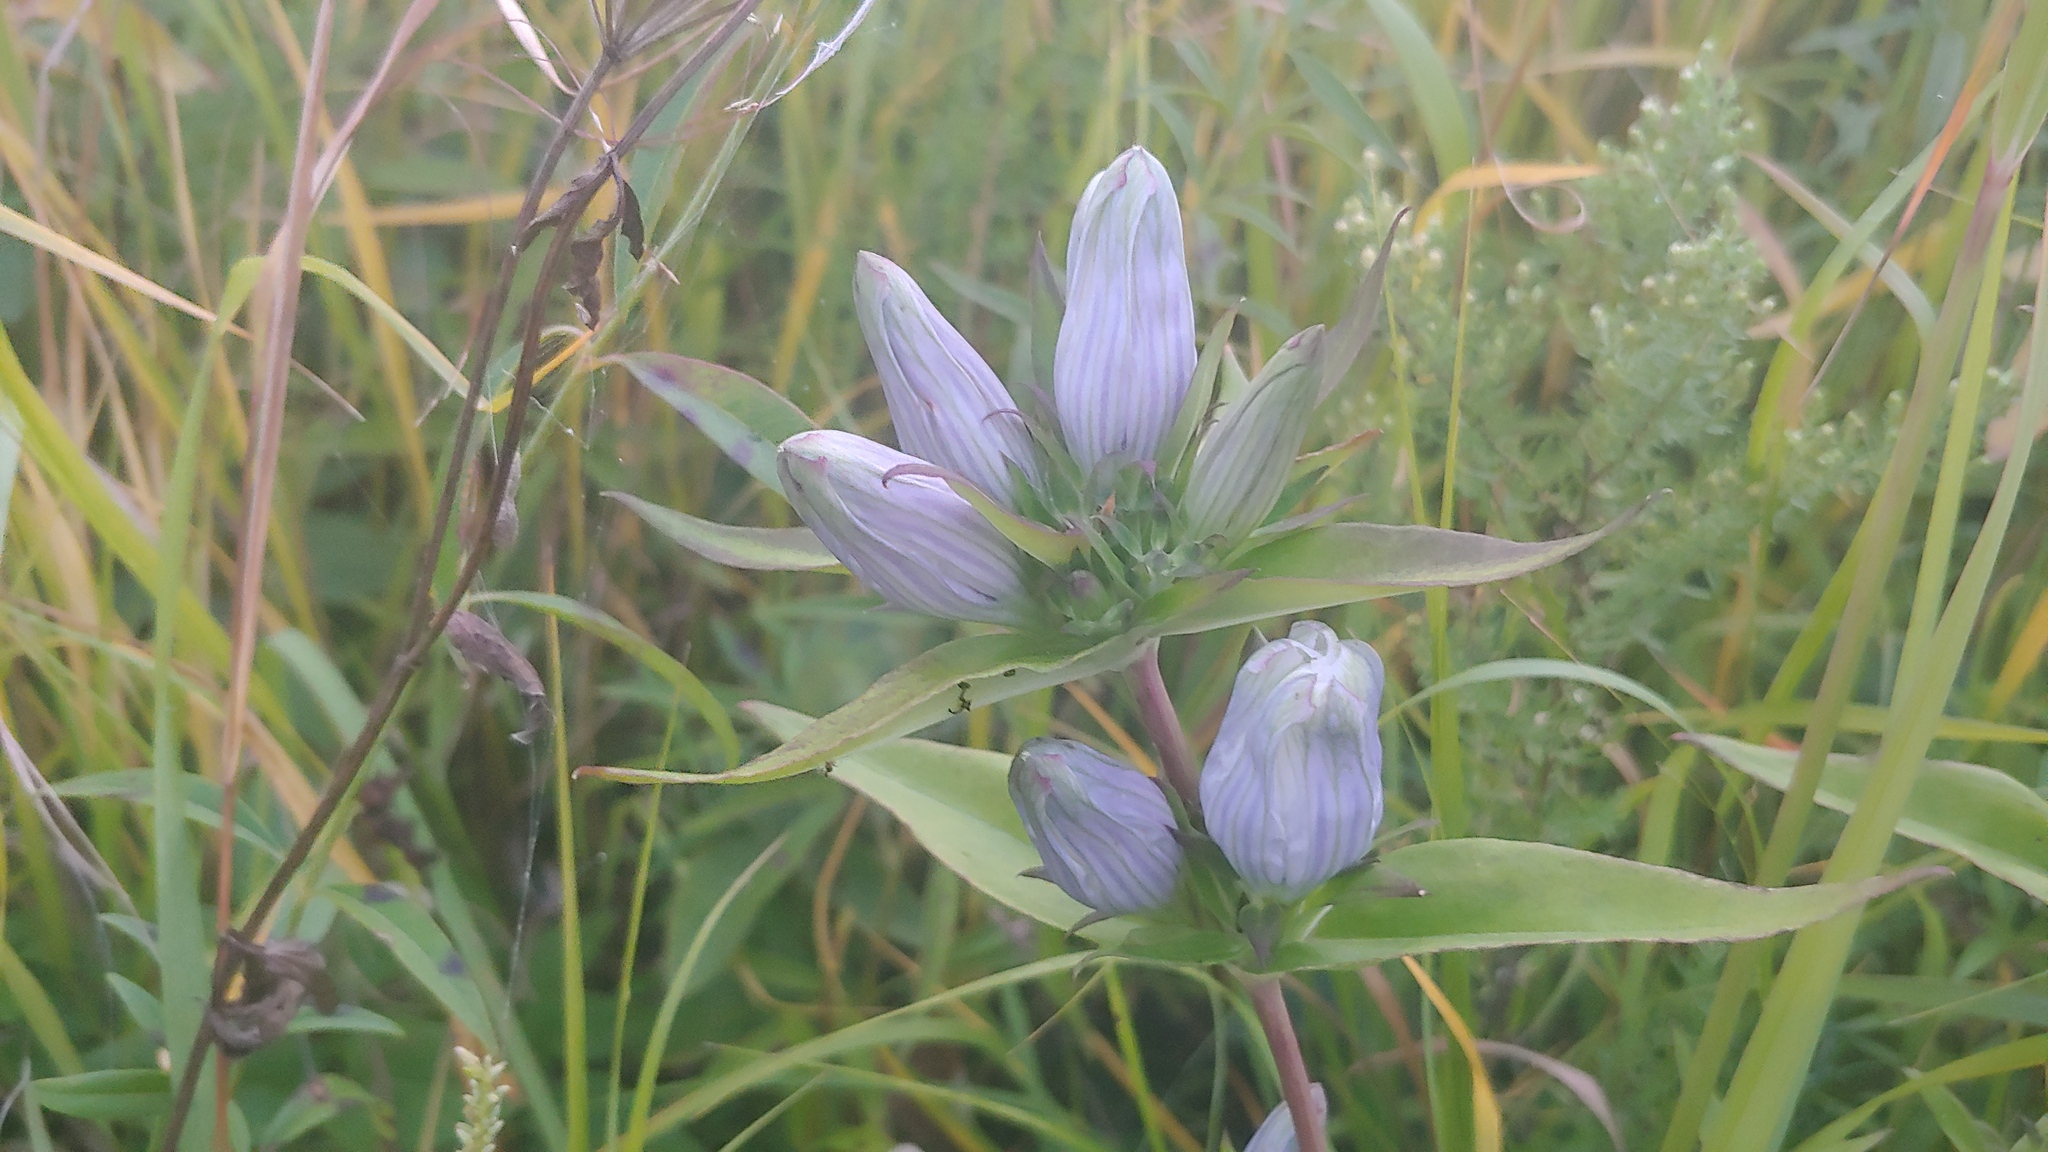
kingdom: Plantae
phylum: Tracheophyta
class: Magnoliopsida
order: Gentianales
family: Gentianaceae
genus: Gentiana
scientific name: Gentiana pallidocyanea
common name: Hybrid bottle gentian
